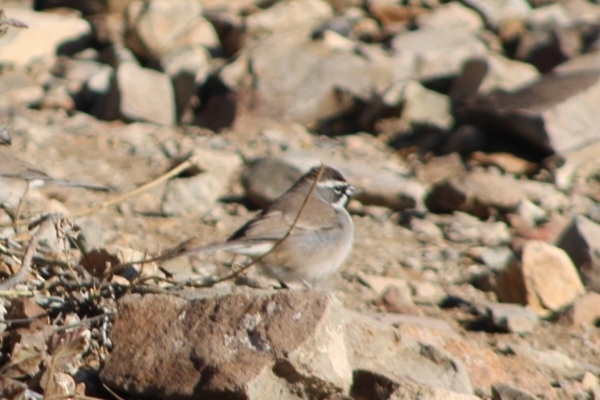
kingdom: Animalia
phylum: Chordata
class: Aves
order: Passeriformes
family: Passerellidae
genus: Amphispiza
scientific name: Amphispiza bilineata
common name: Black-throated sparrow
